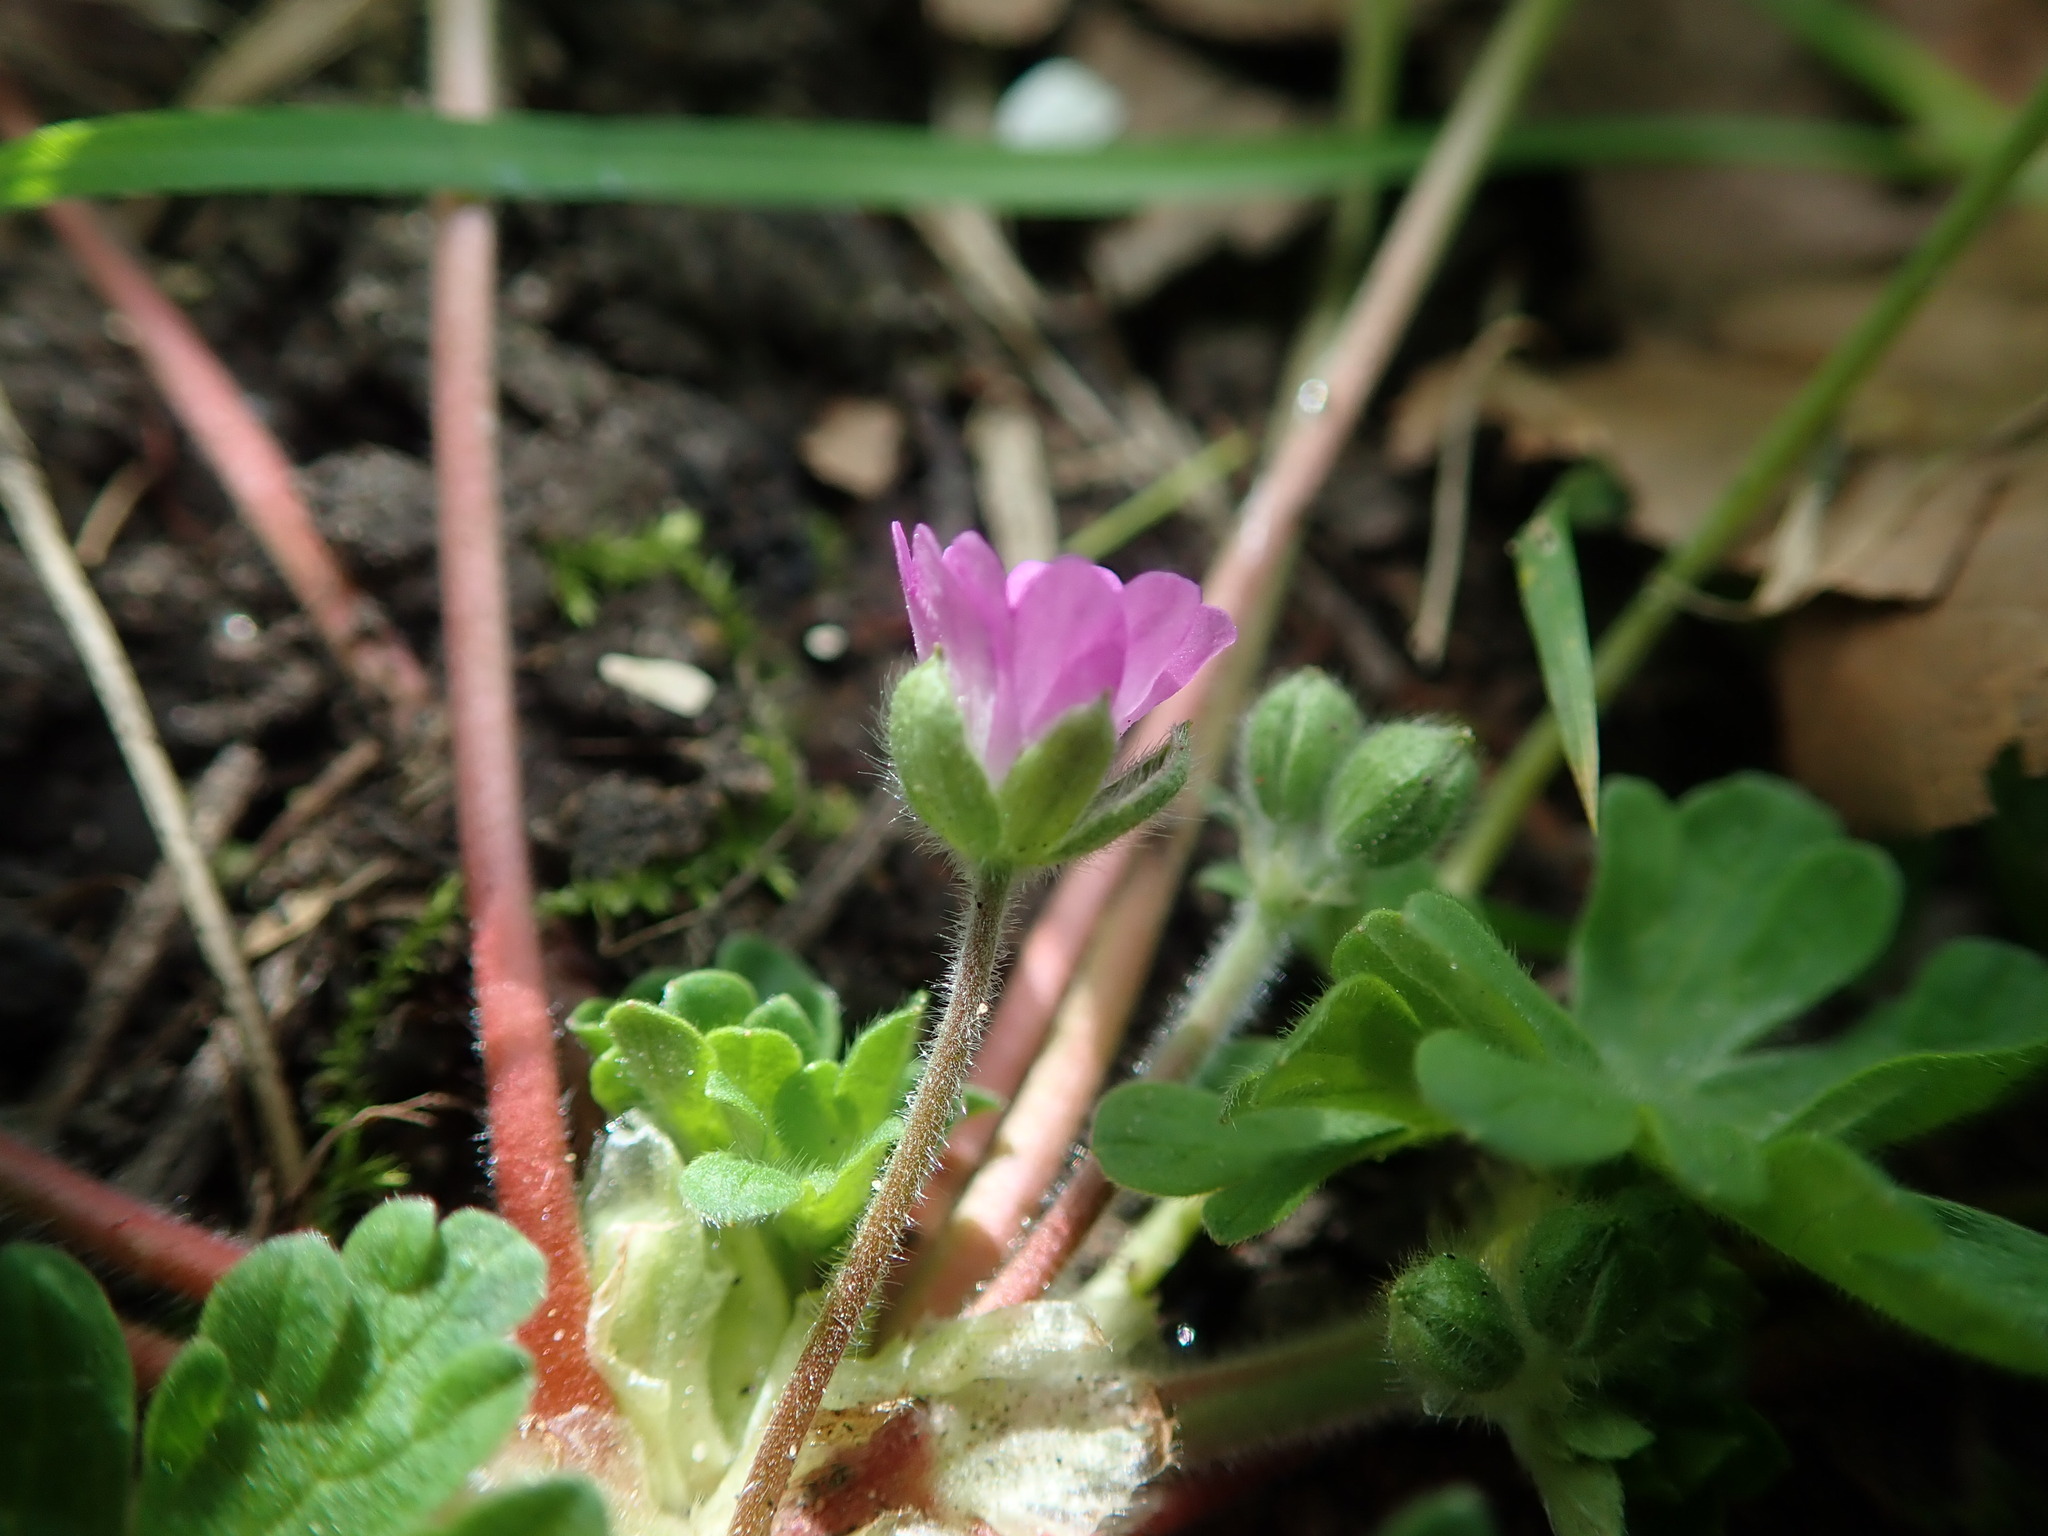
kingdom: Plantae
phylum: Tracheophyta
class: Magnoliopsida
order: Geraniales
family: Geraniaceae
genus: Geranium
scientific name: Geranium molle
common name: Dove's-foot crane's-bill
